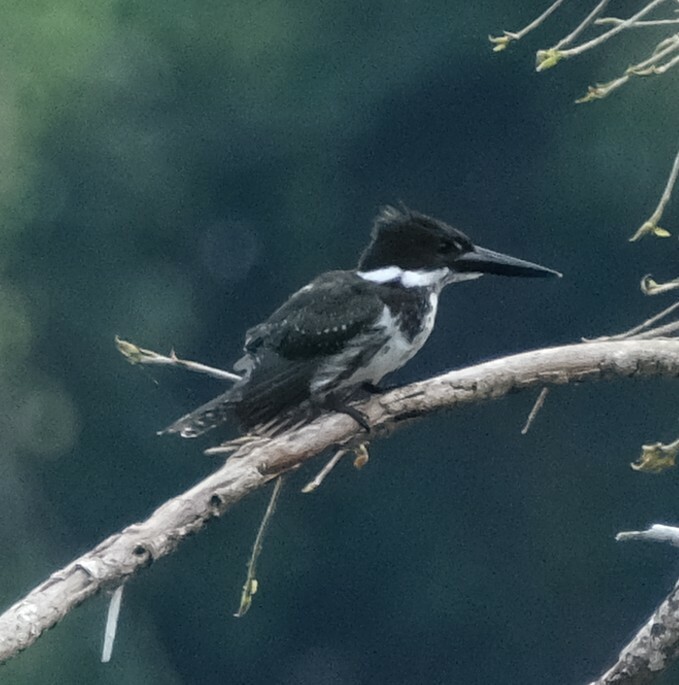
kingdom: Animalia
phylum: Chordata
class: Aves
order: Coraciiformes
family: Alcedinidae
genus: Chloroceryle
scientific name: Chloroceryle amazona
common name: Amazon kingfisher
